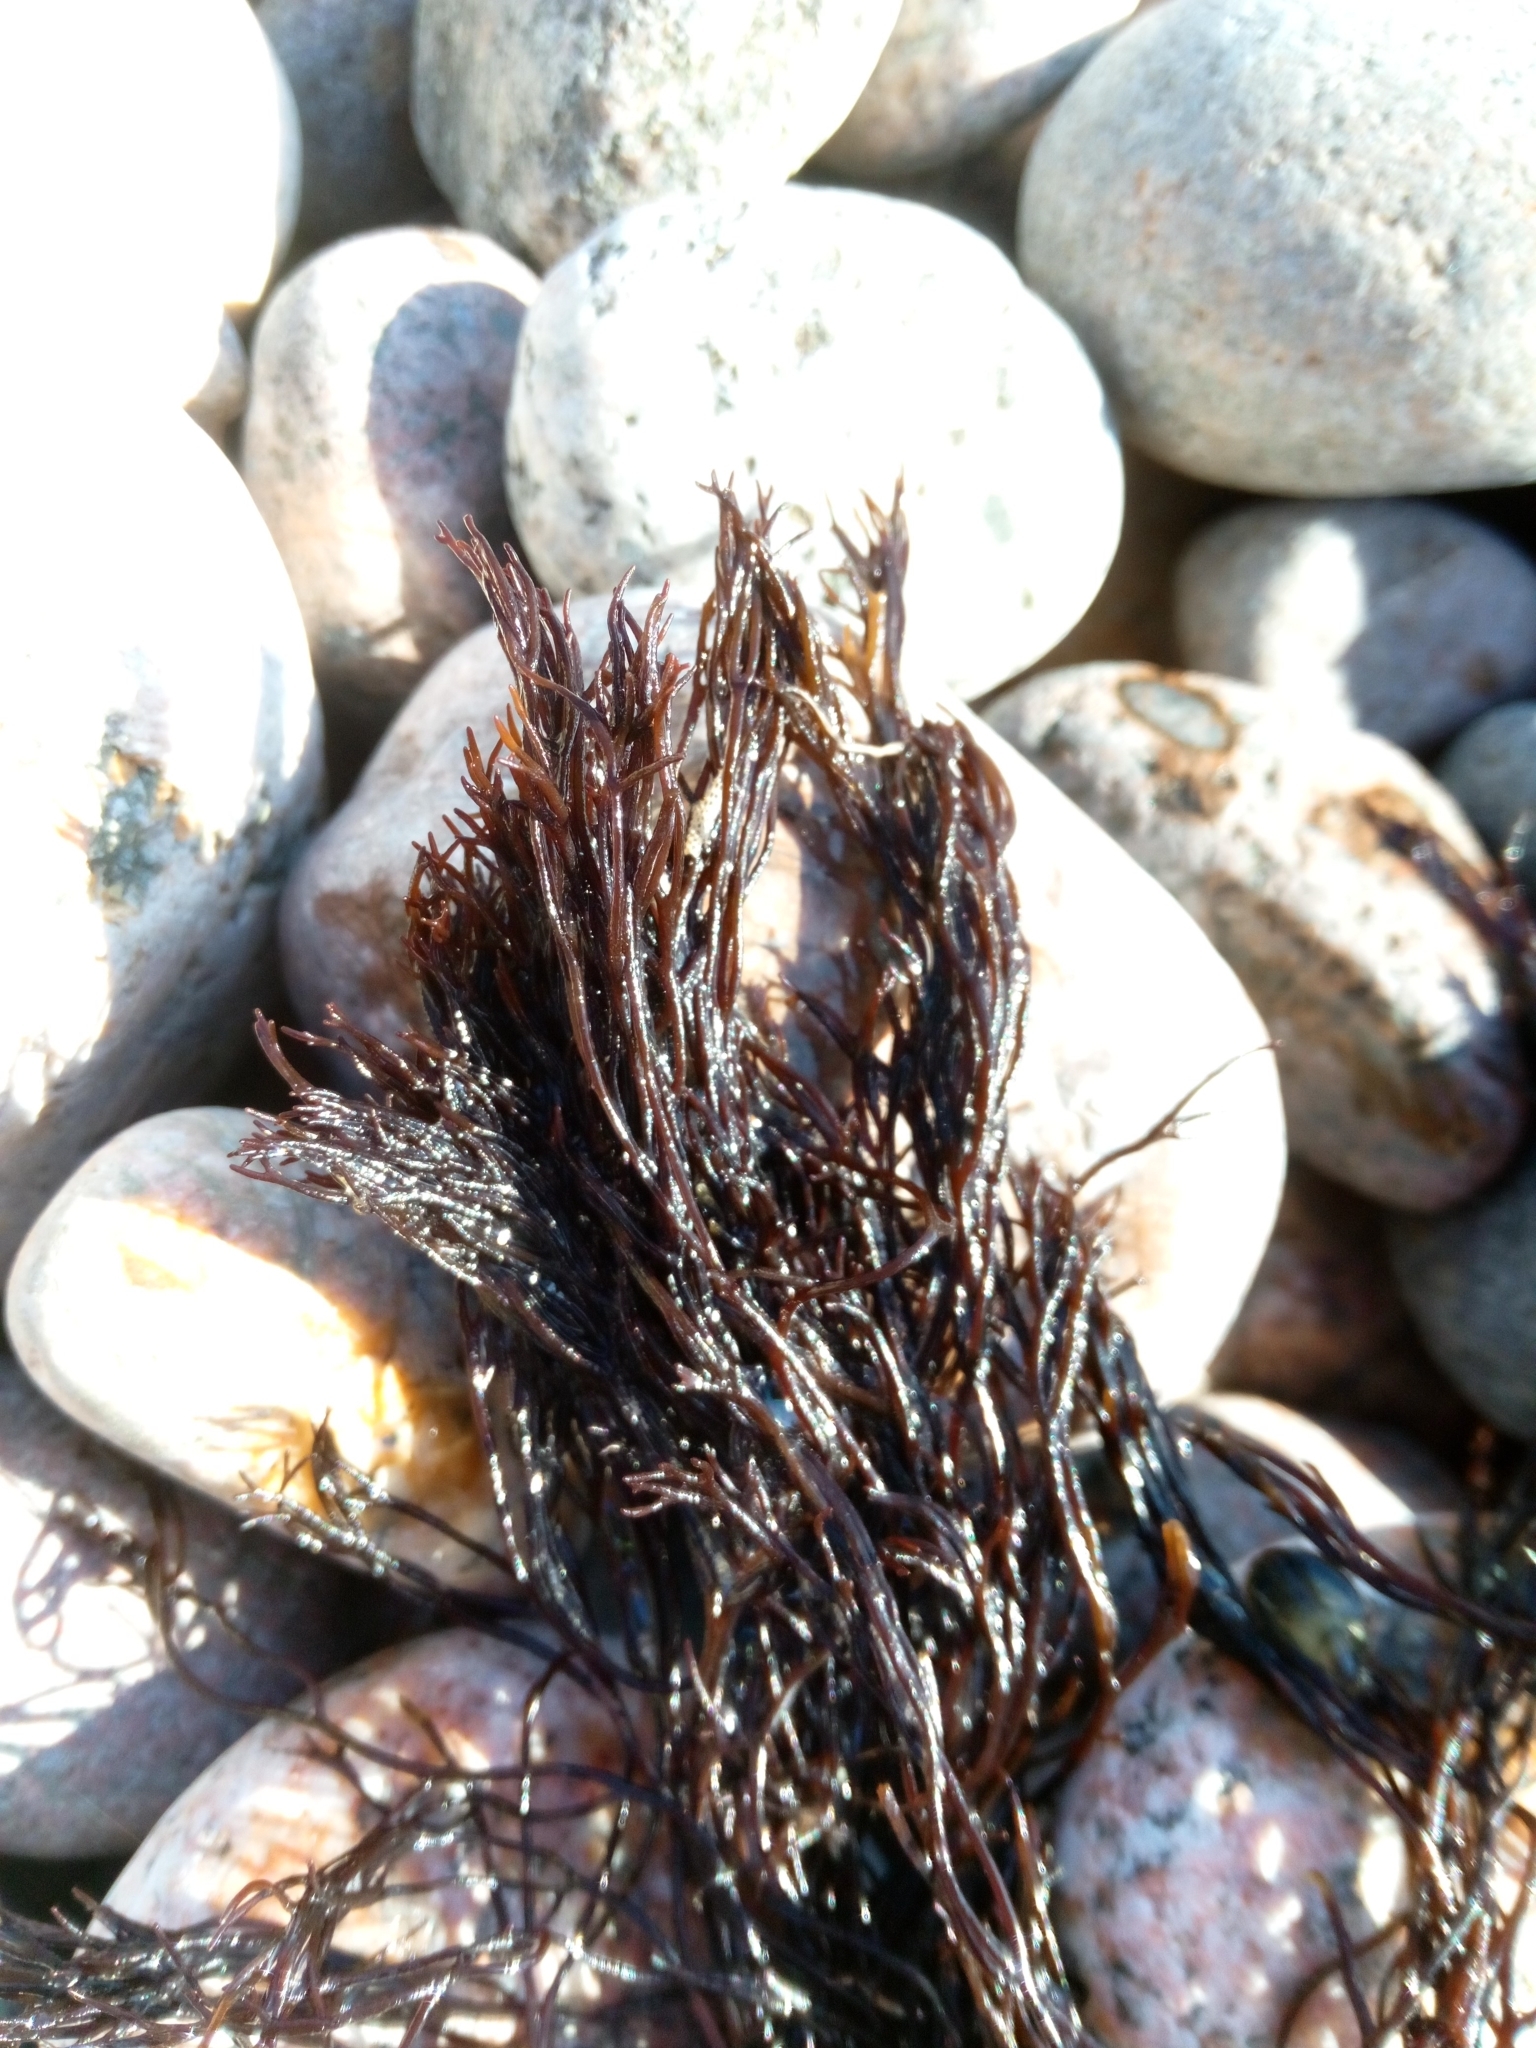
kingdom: Plantae
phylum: Rhodophyta
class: Florideophyceae
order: Gigartinales
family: Furcellariaceae
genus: Furcellaria
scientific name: Furcellaria lumbricalis
